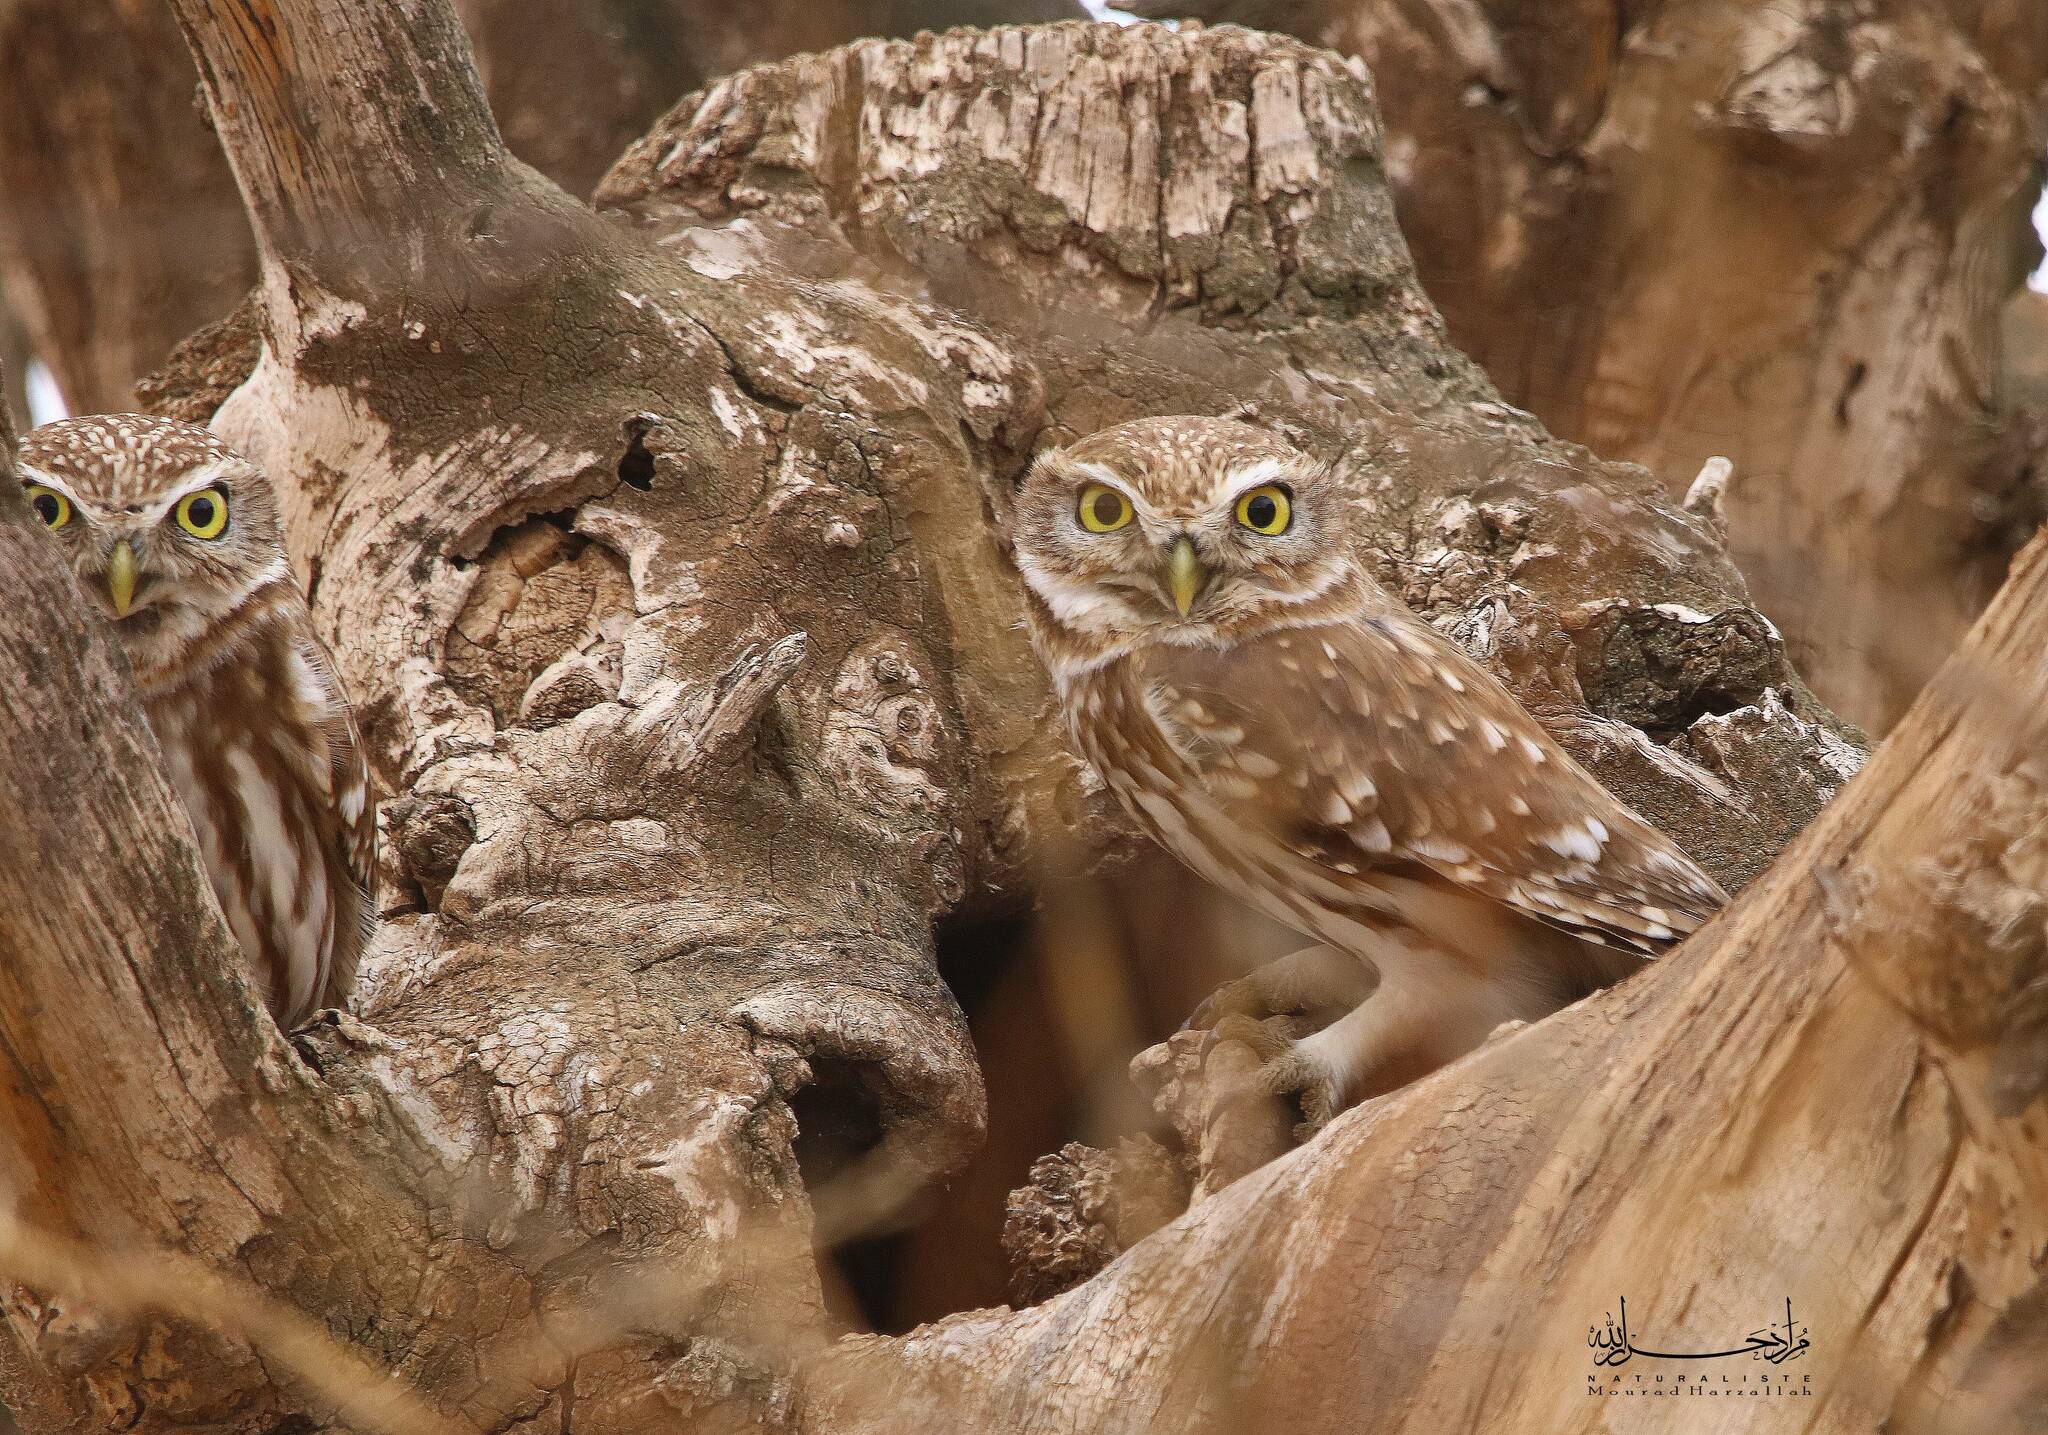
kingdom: Animalia
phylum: Chordata
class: Aves
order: Strigiformes
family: Strigidae
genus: Athene
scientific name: Athene noctua
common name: Little owl
